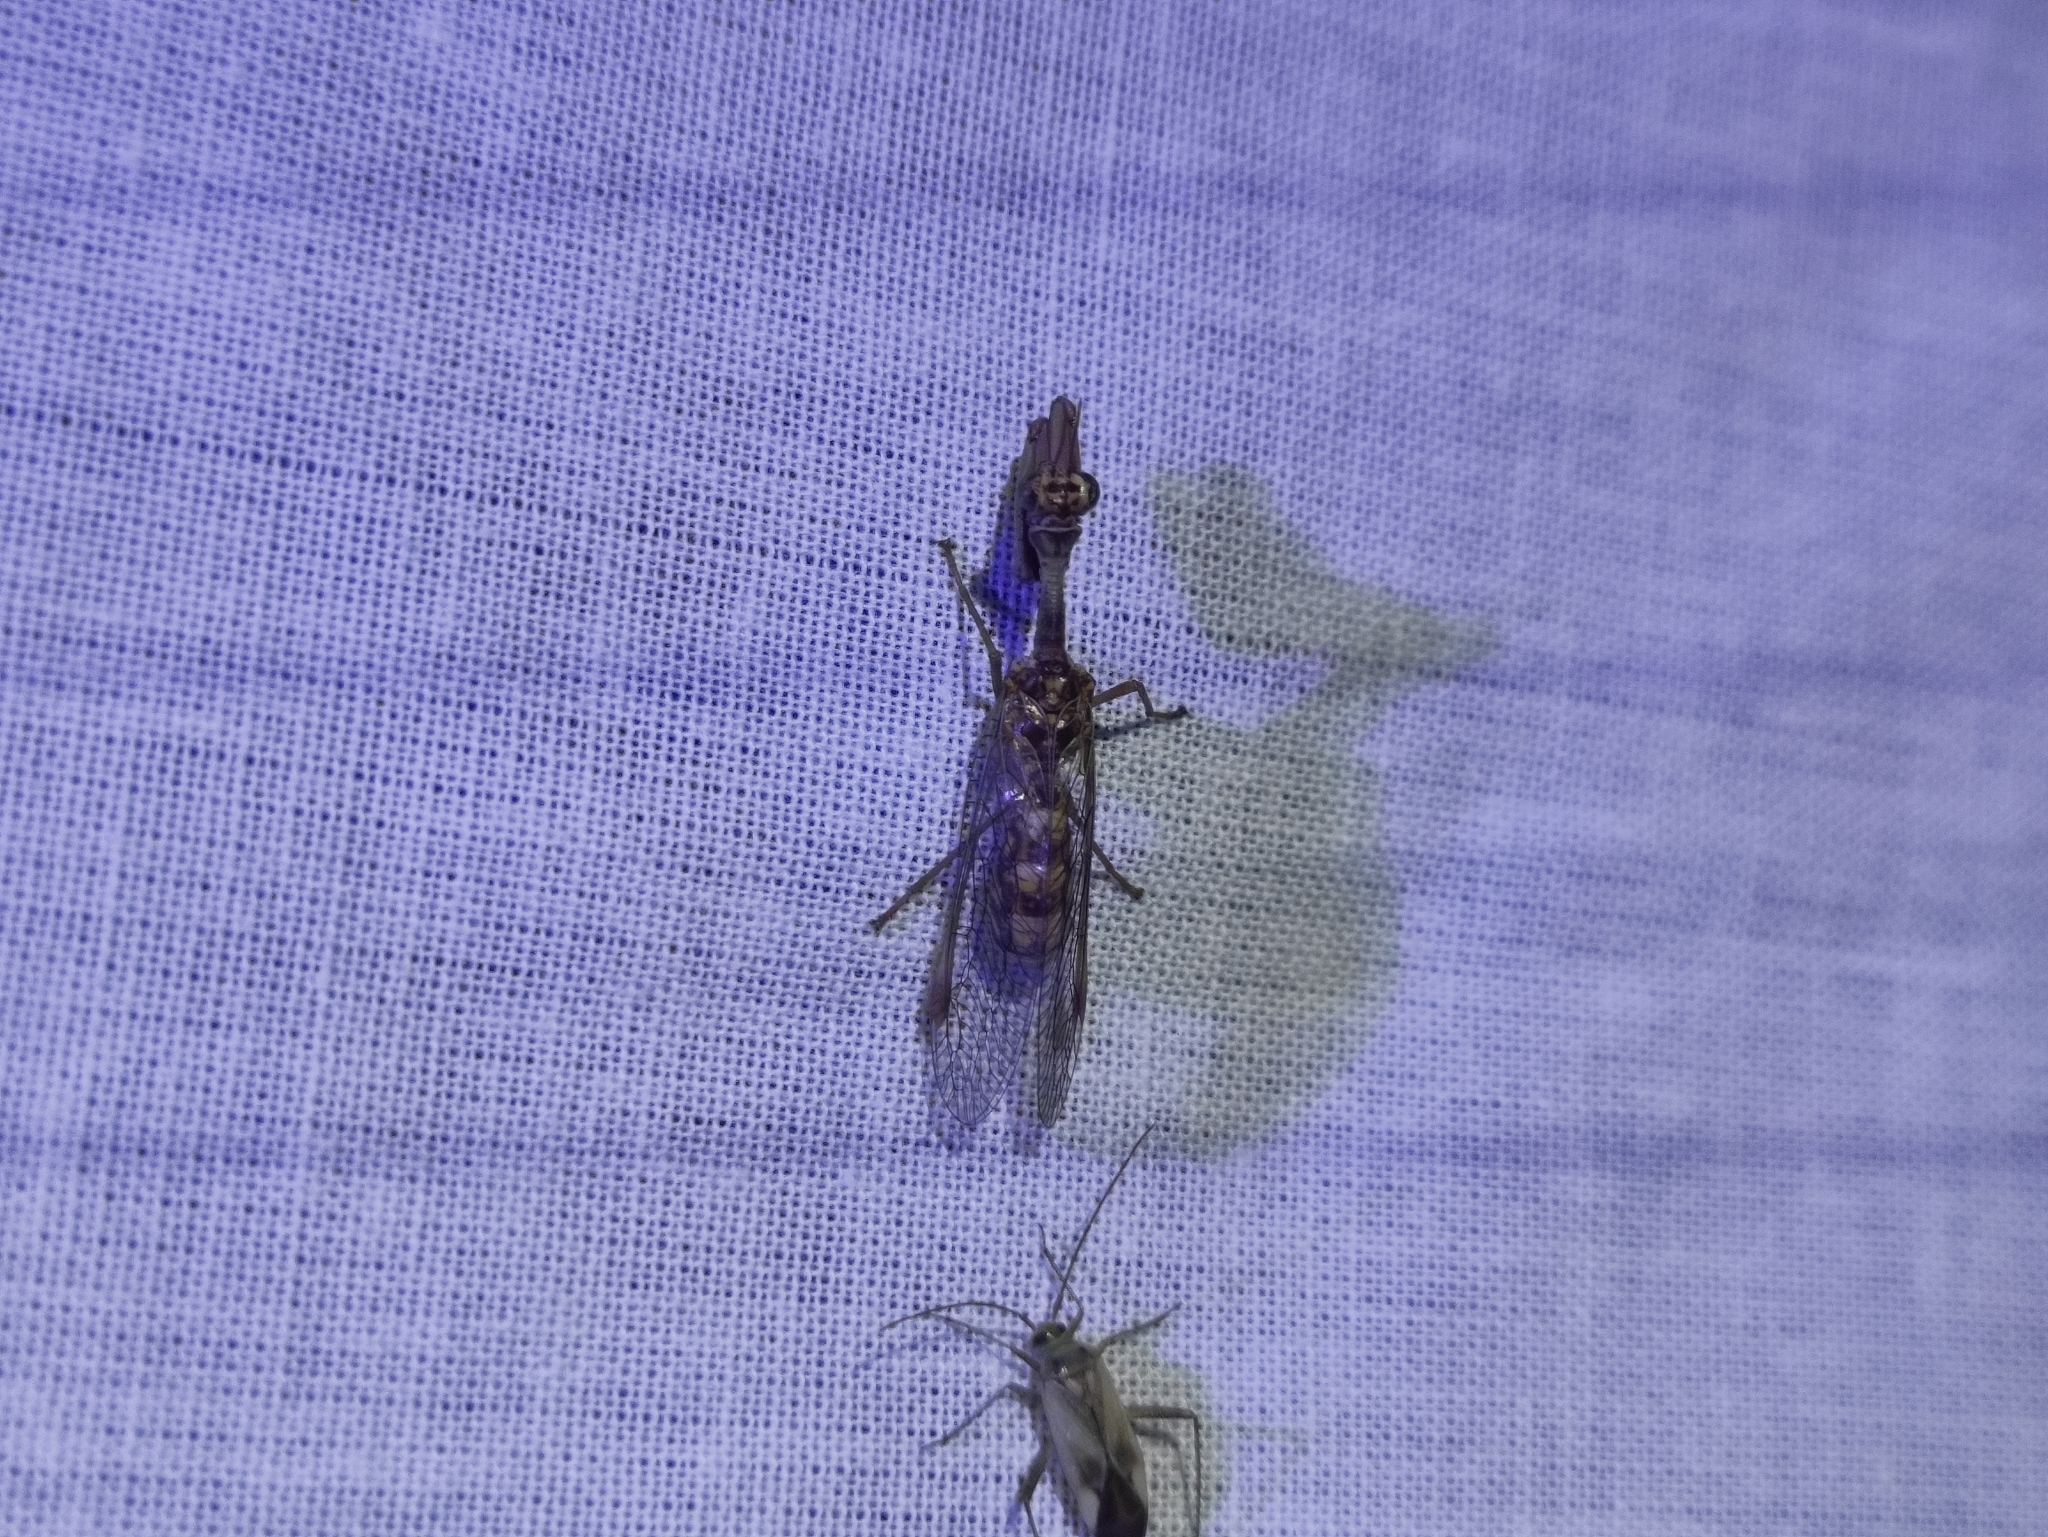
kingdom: Animalia
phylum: Arthropoda
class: Insecta
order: Neuroptera
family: Mantispidae
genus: Mantispa
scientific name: Mantispa styriaca
